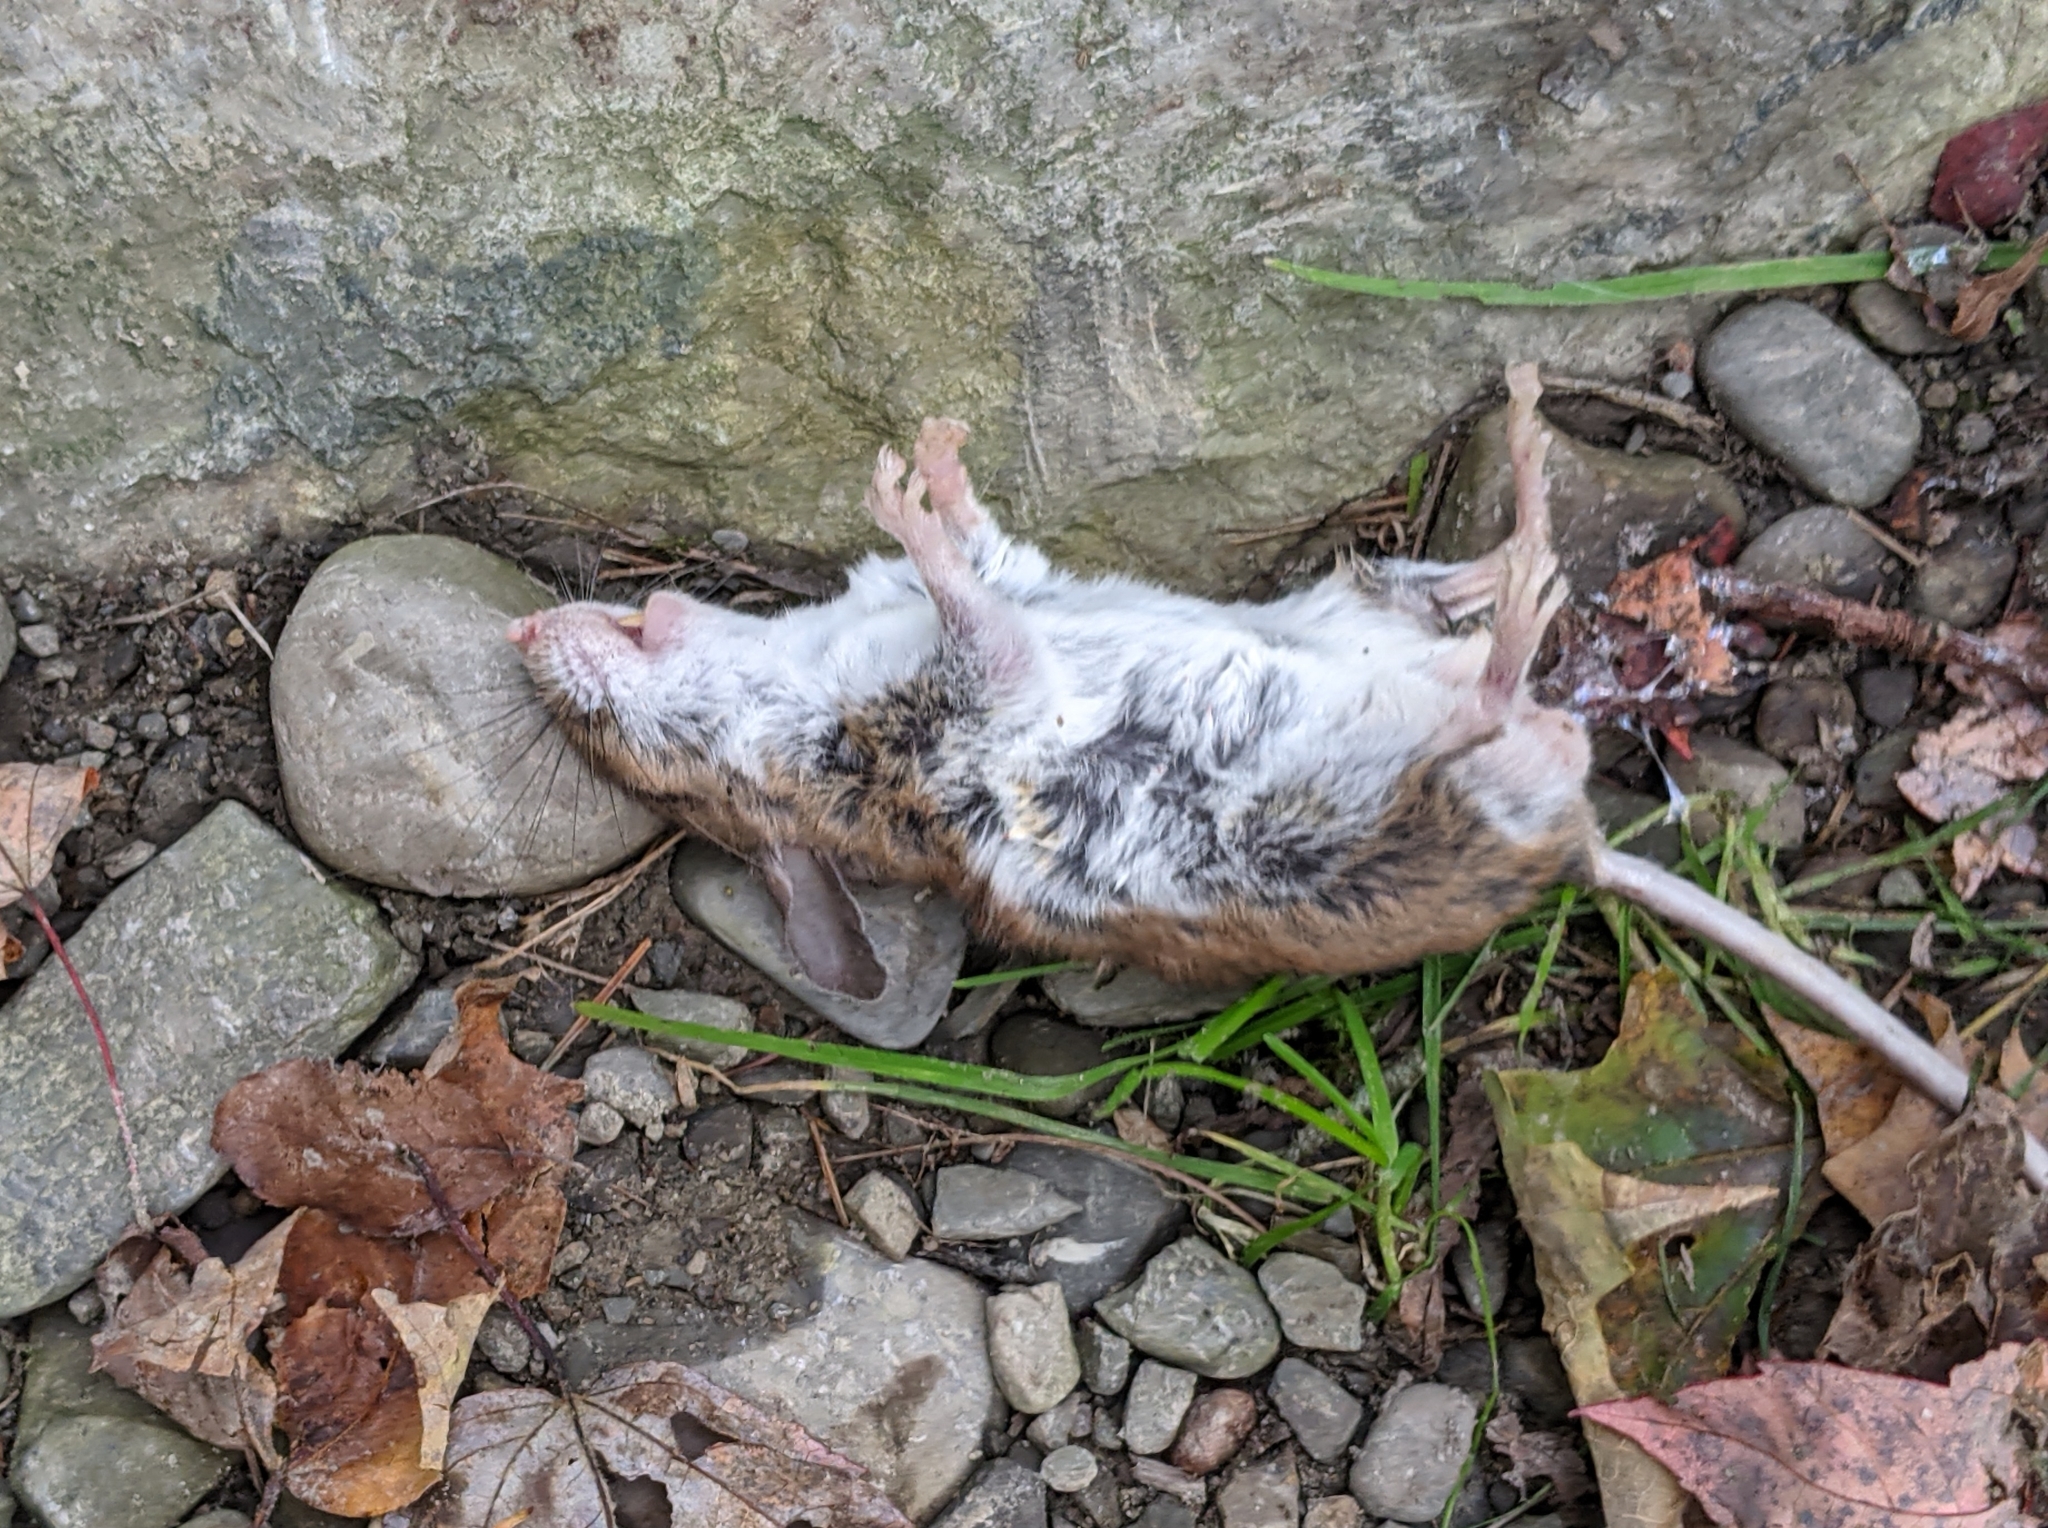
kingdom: Animalia
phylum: Chordata
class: Mammalia
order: Rodentia
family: Cricetidae
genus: Peromyscus
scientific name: Peromyscus leucopus
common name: White-footed deermouse
